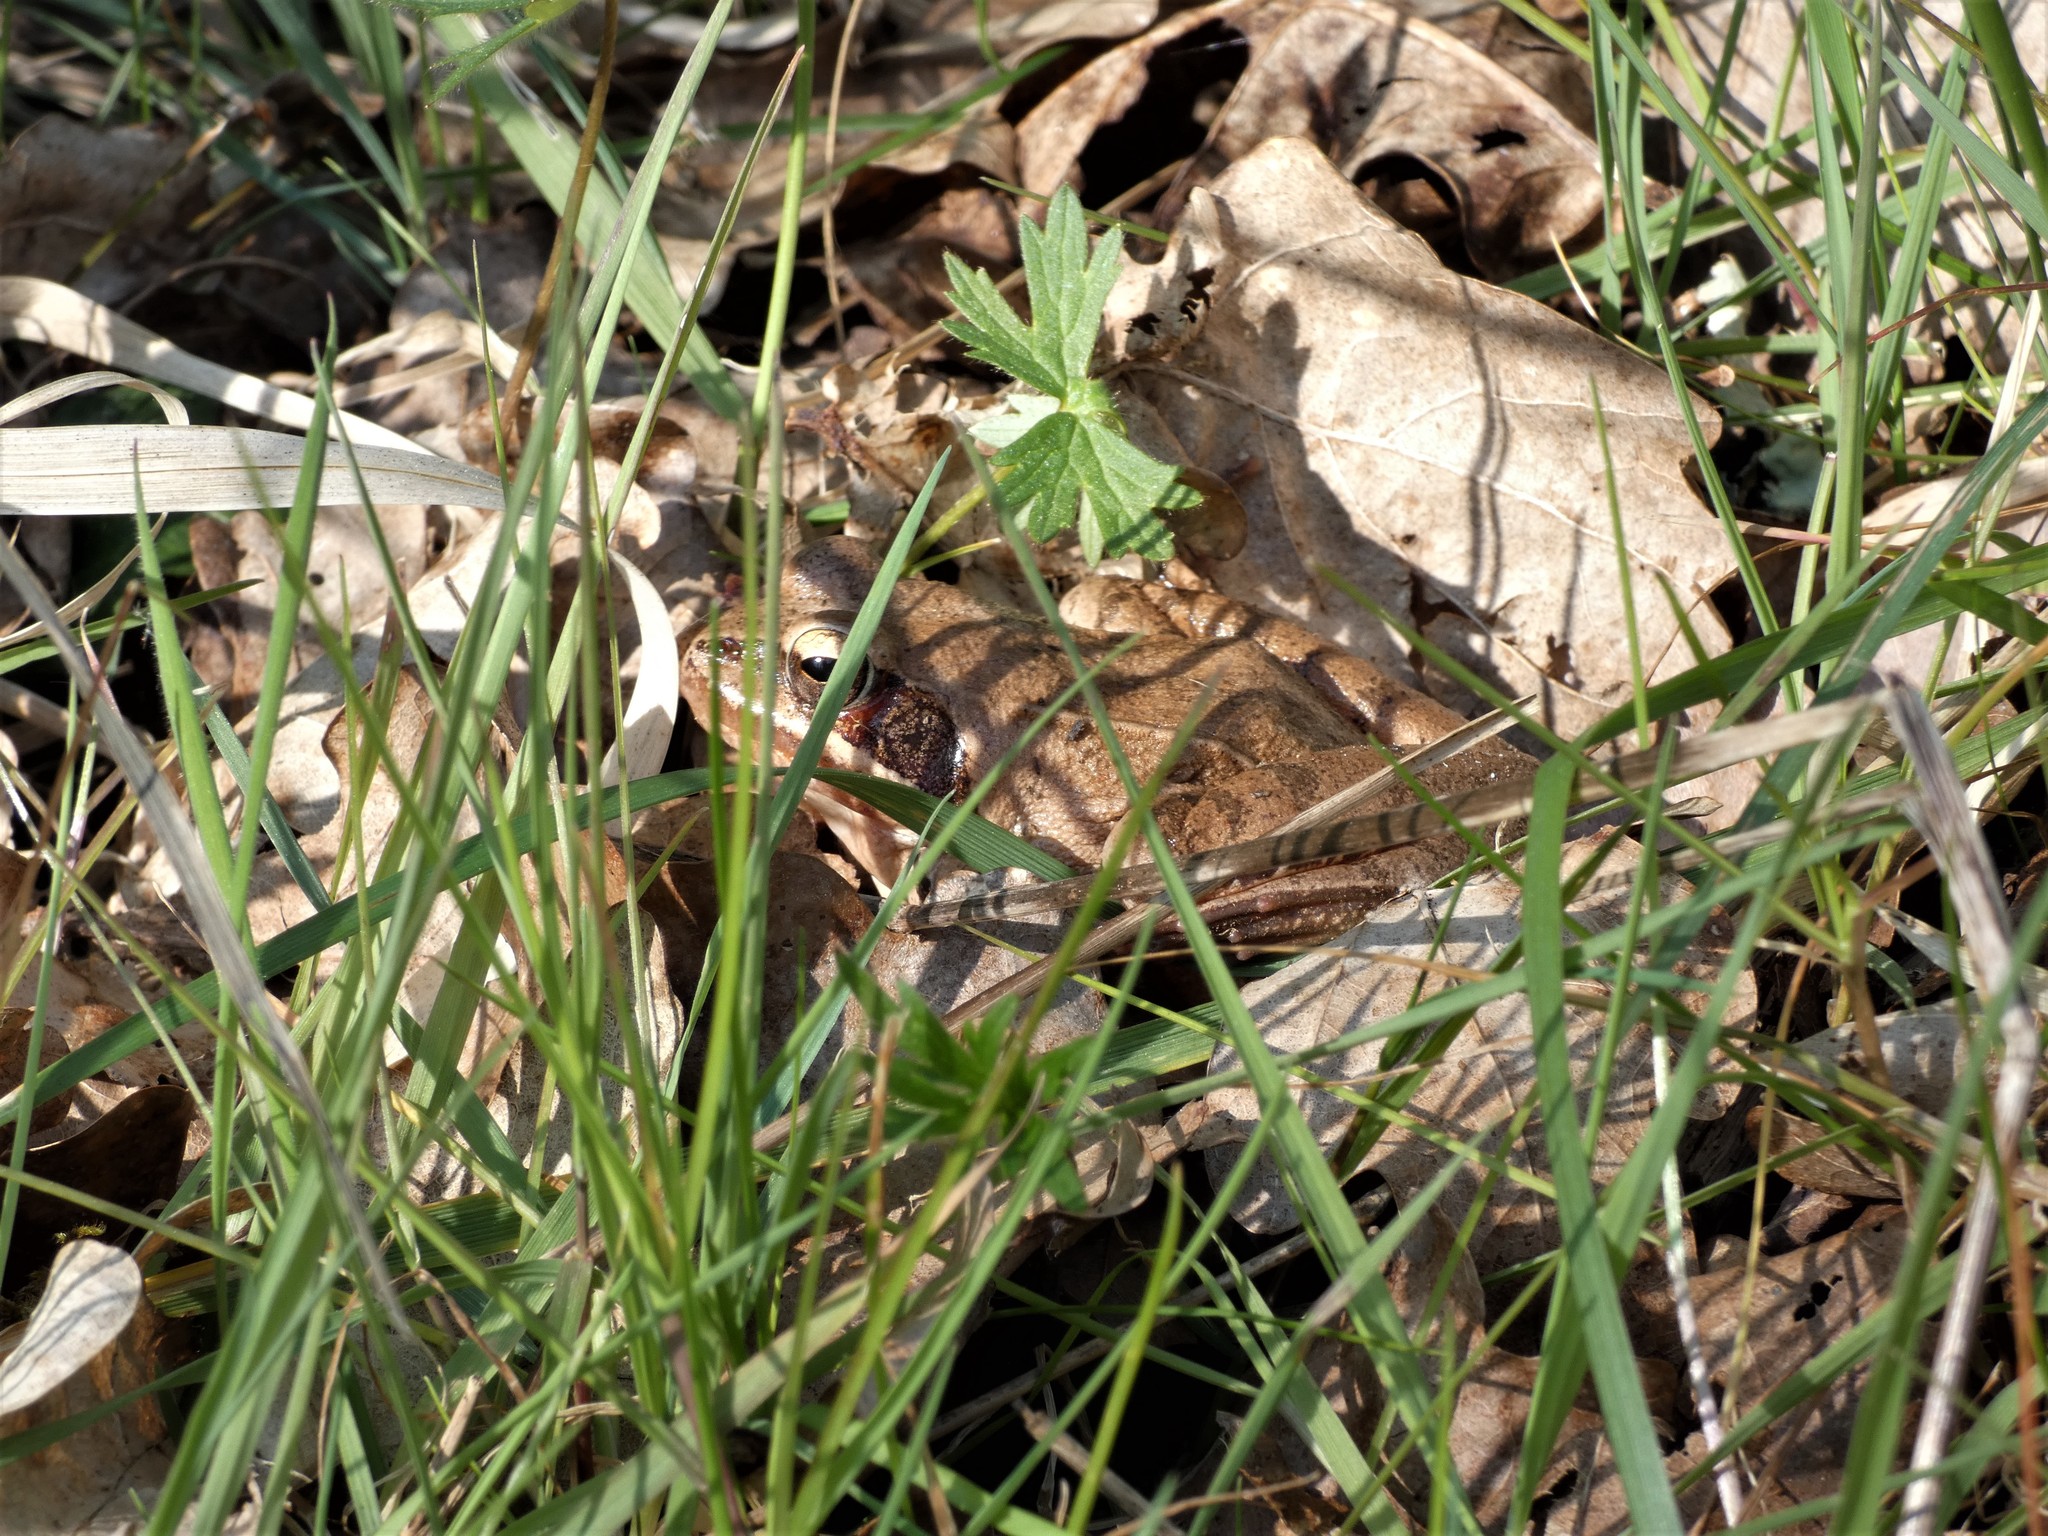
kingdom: Animalia
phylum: Chordata
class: Amphibia
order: Anura
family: Ranidae
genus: Rana
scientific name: Rana temporaria
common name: Common frog
